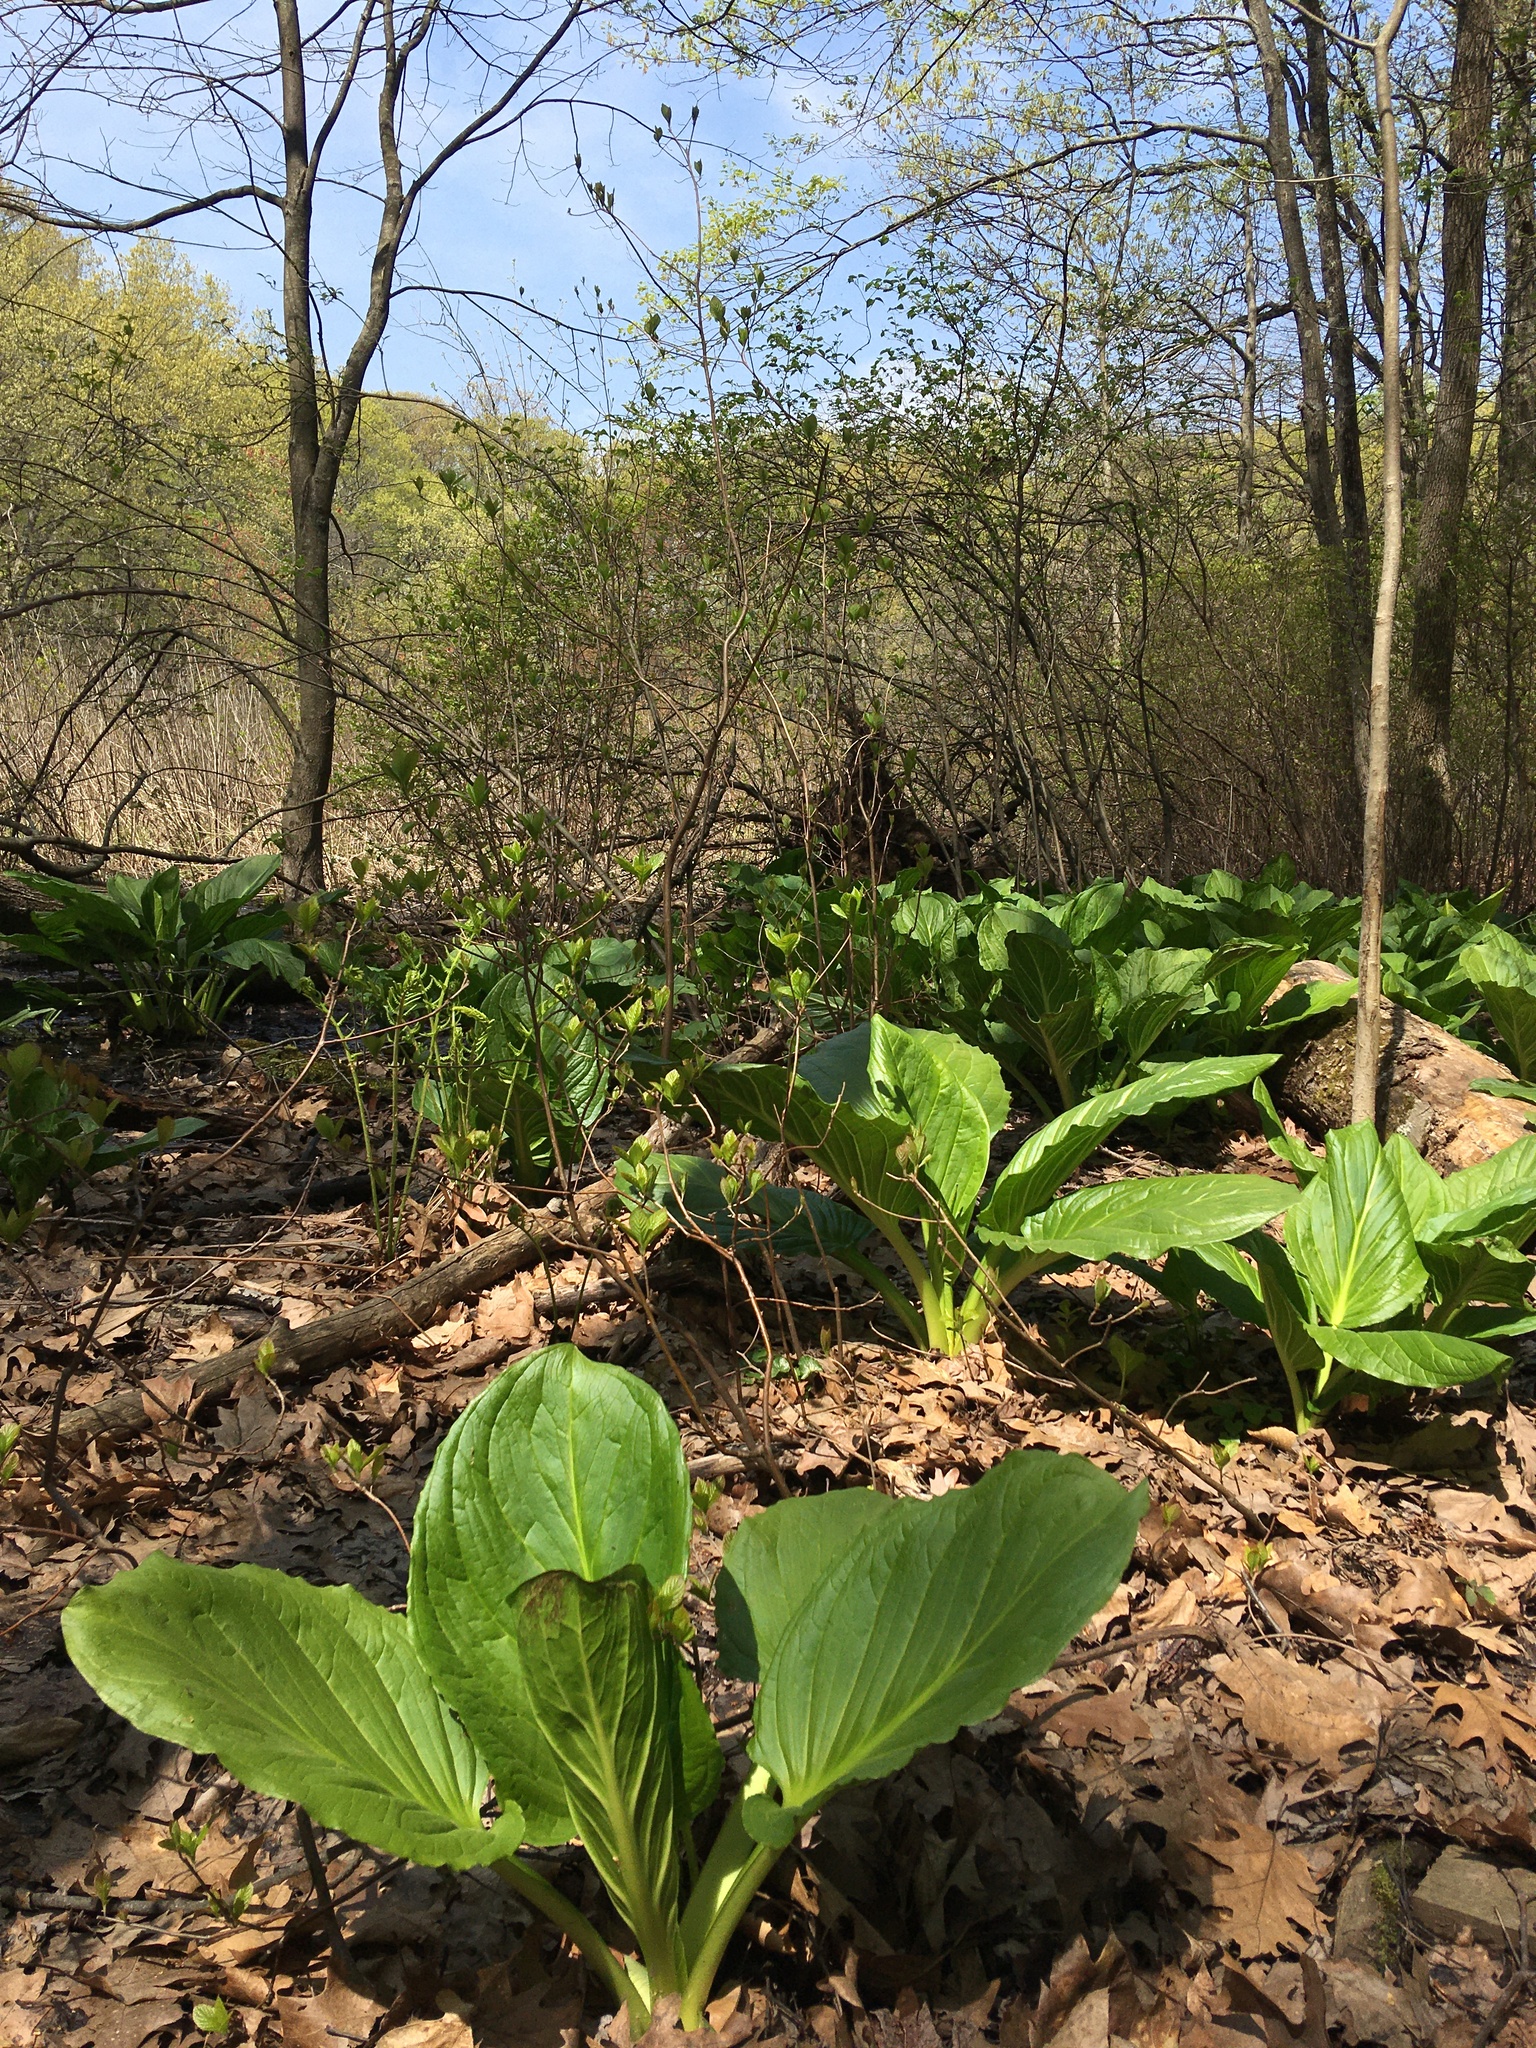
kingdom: Plantae
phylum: Tracheophyta
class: Liliopsida
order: Alismatales
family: Araceae
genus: Symplocarpus
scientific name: Symplocarpus foetidus
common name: Eastern skunk cabbage
